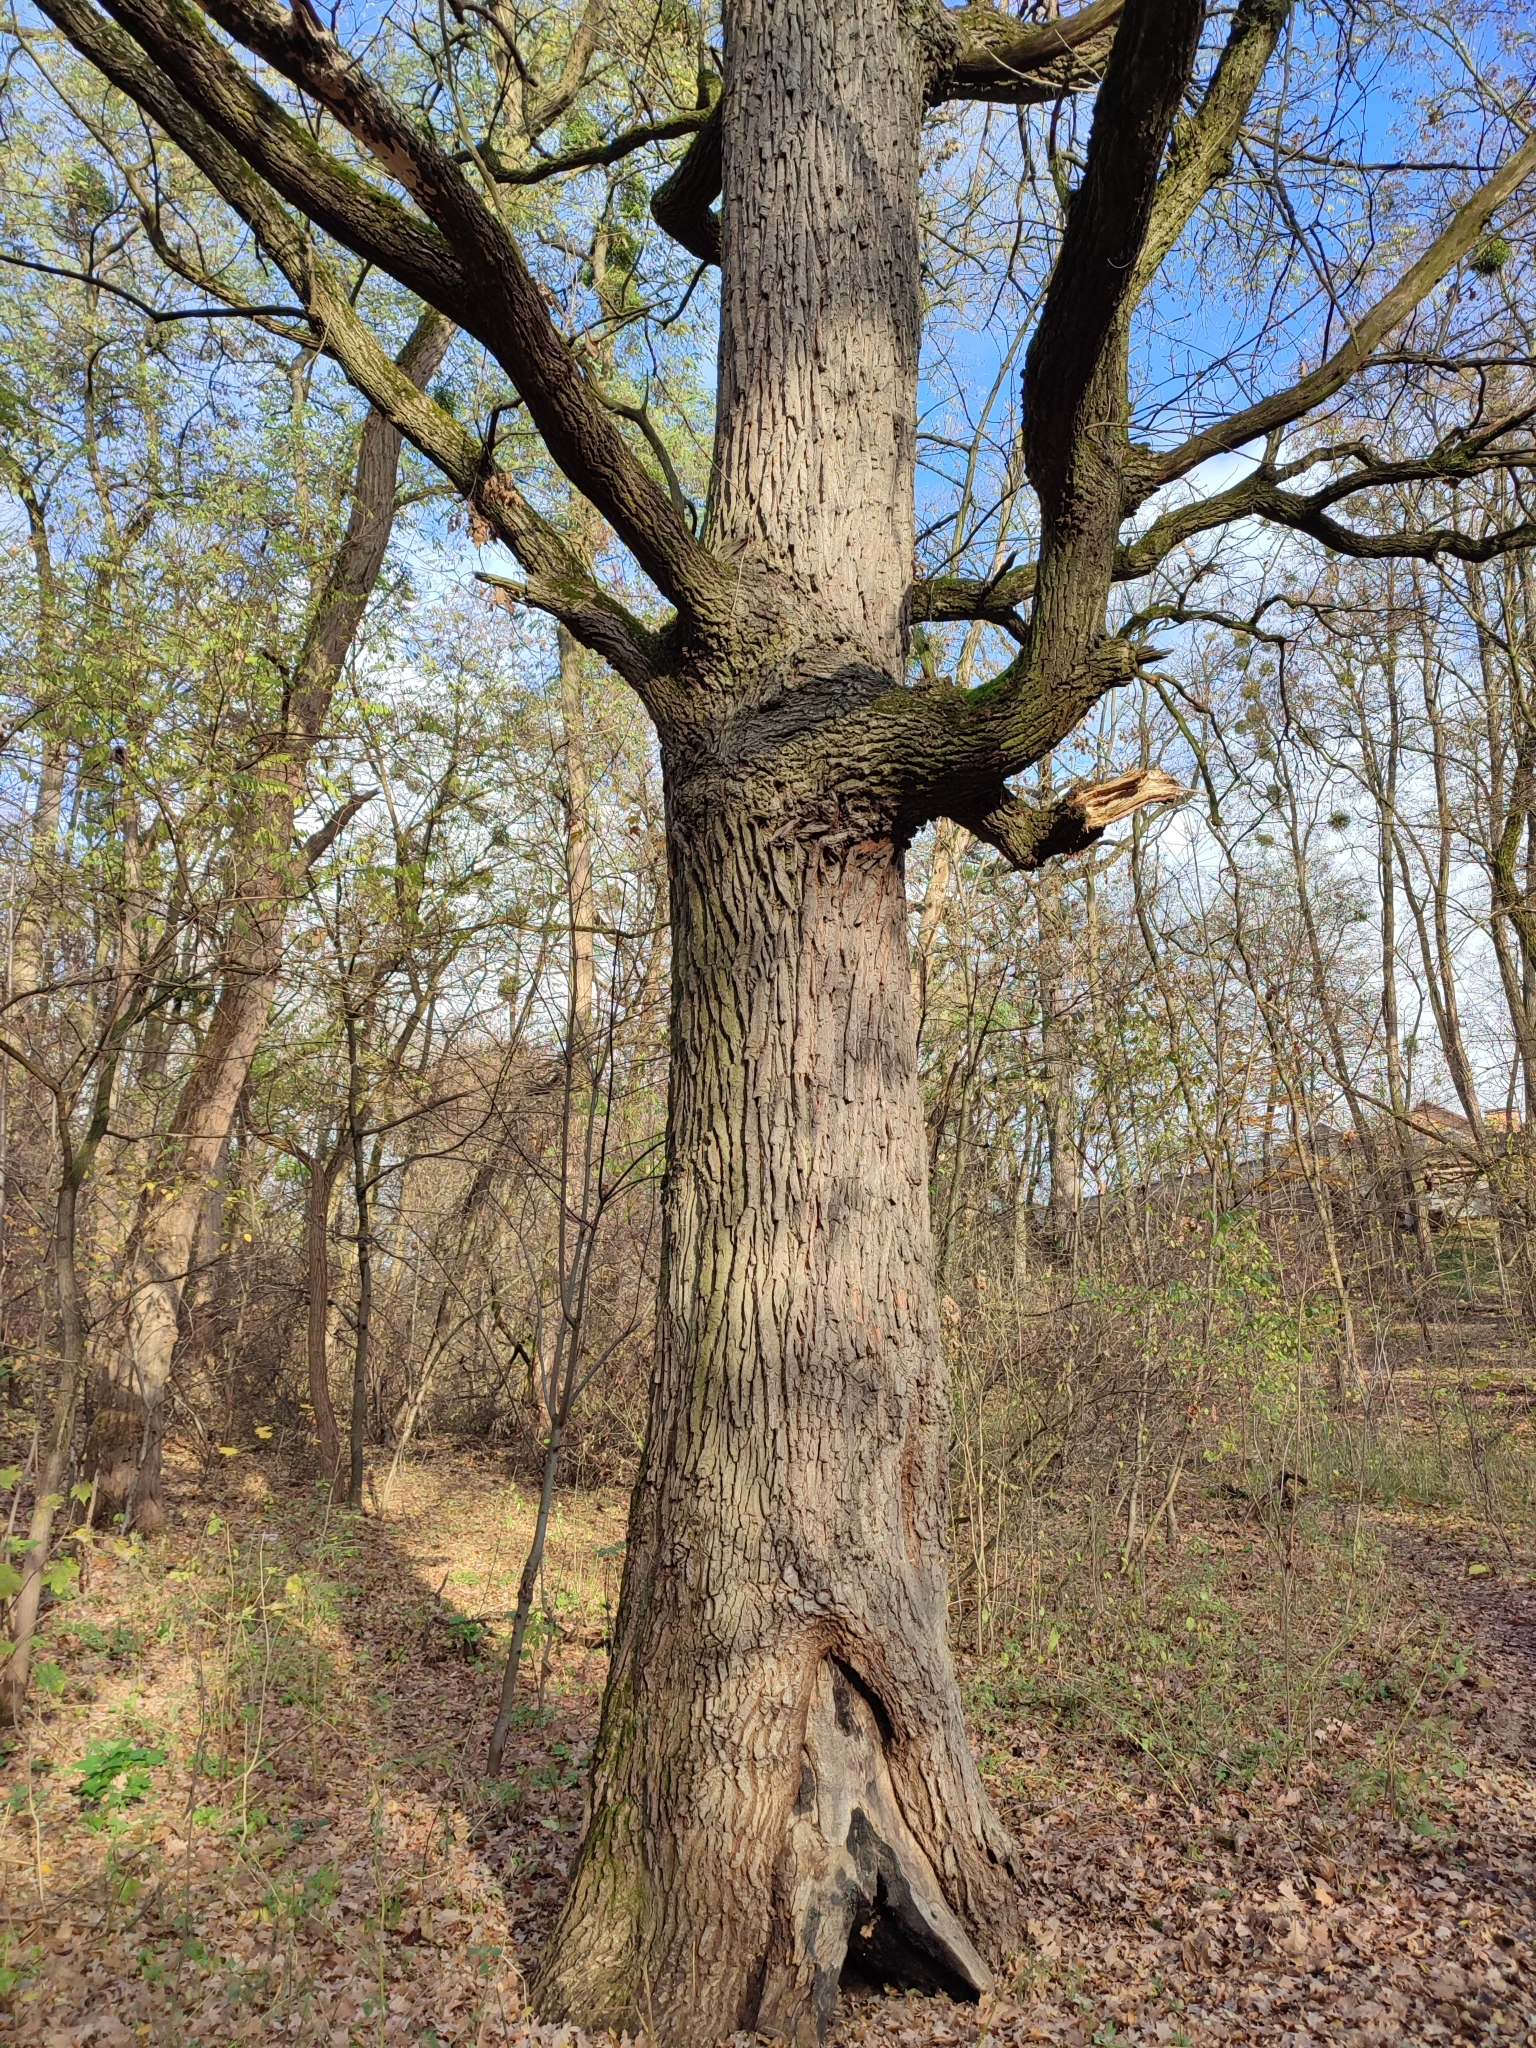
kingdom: Plantae
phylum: Tracheophyta
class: Magnoliopsida
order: Fagales
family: Fagaceae
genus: Quercus
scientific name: Quercus robur
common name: Pedunculate oak
